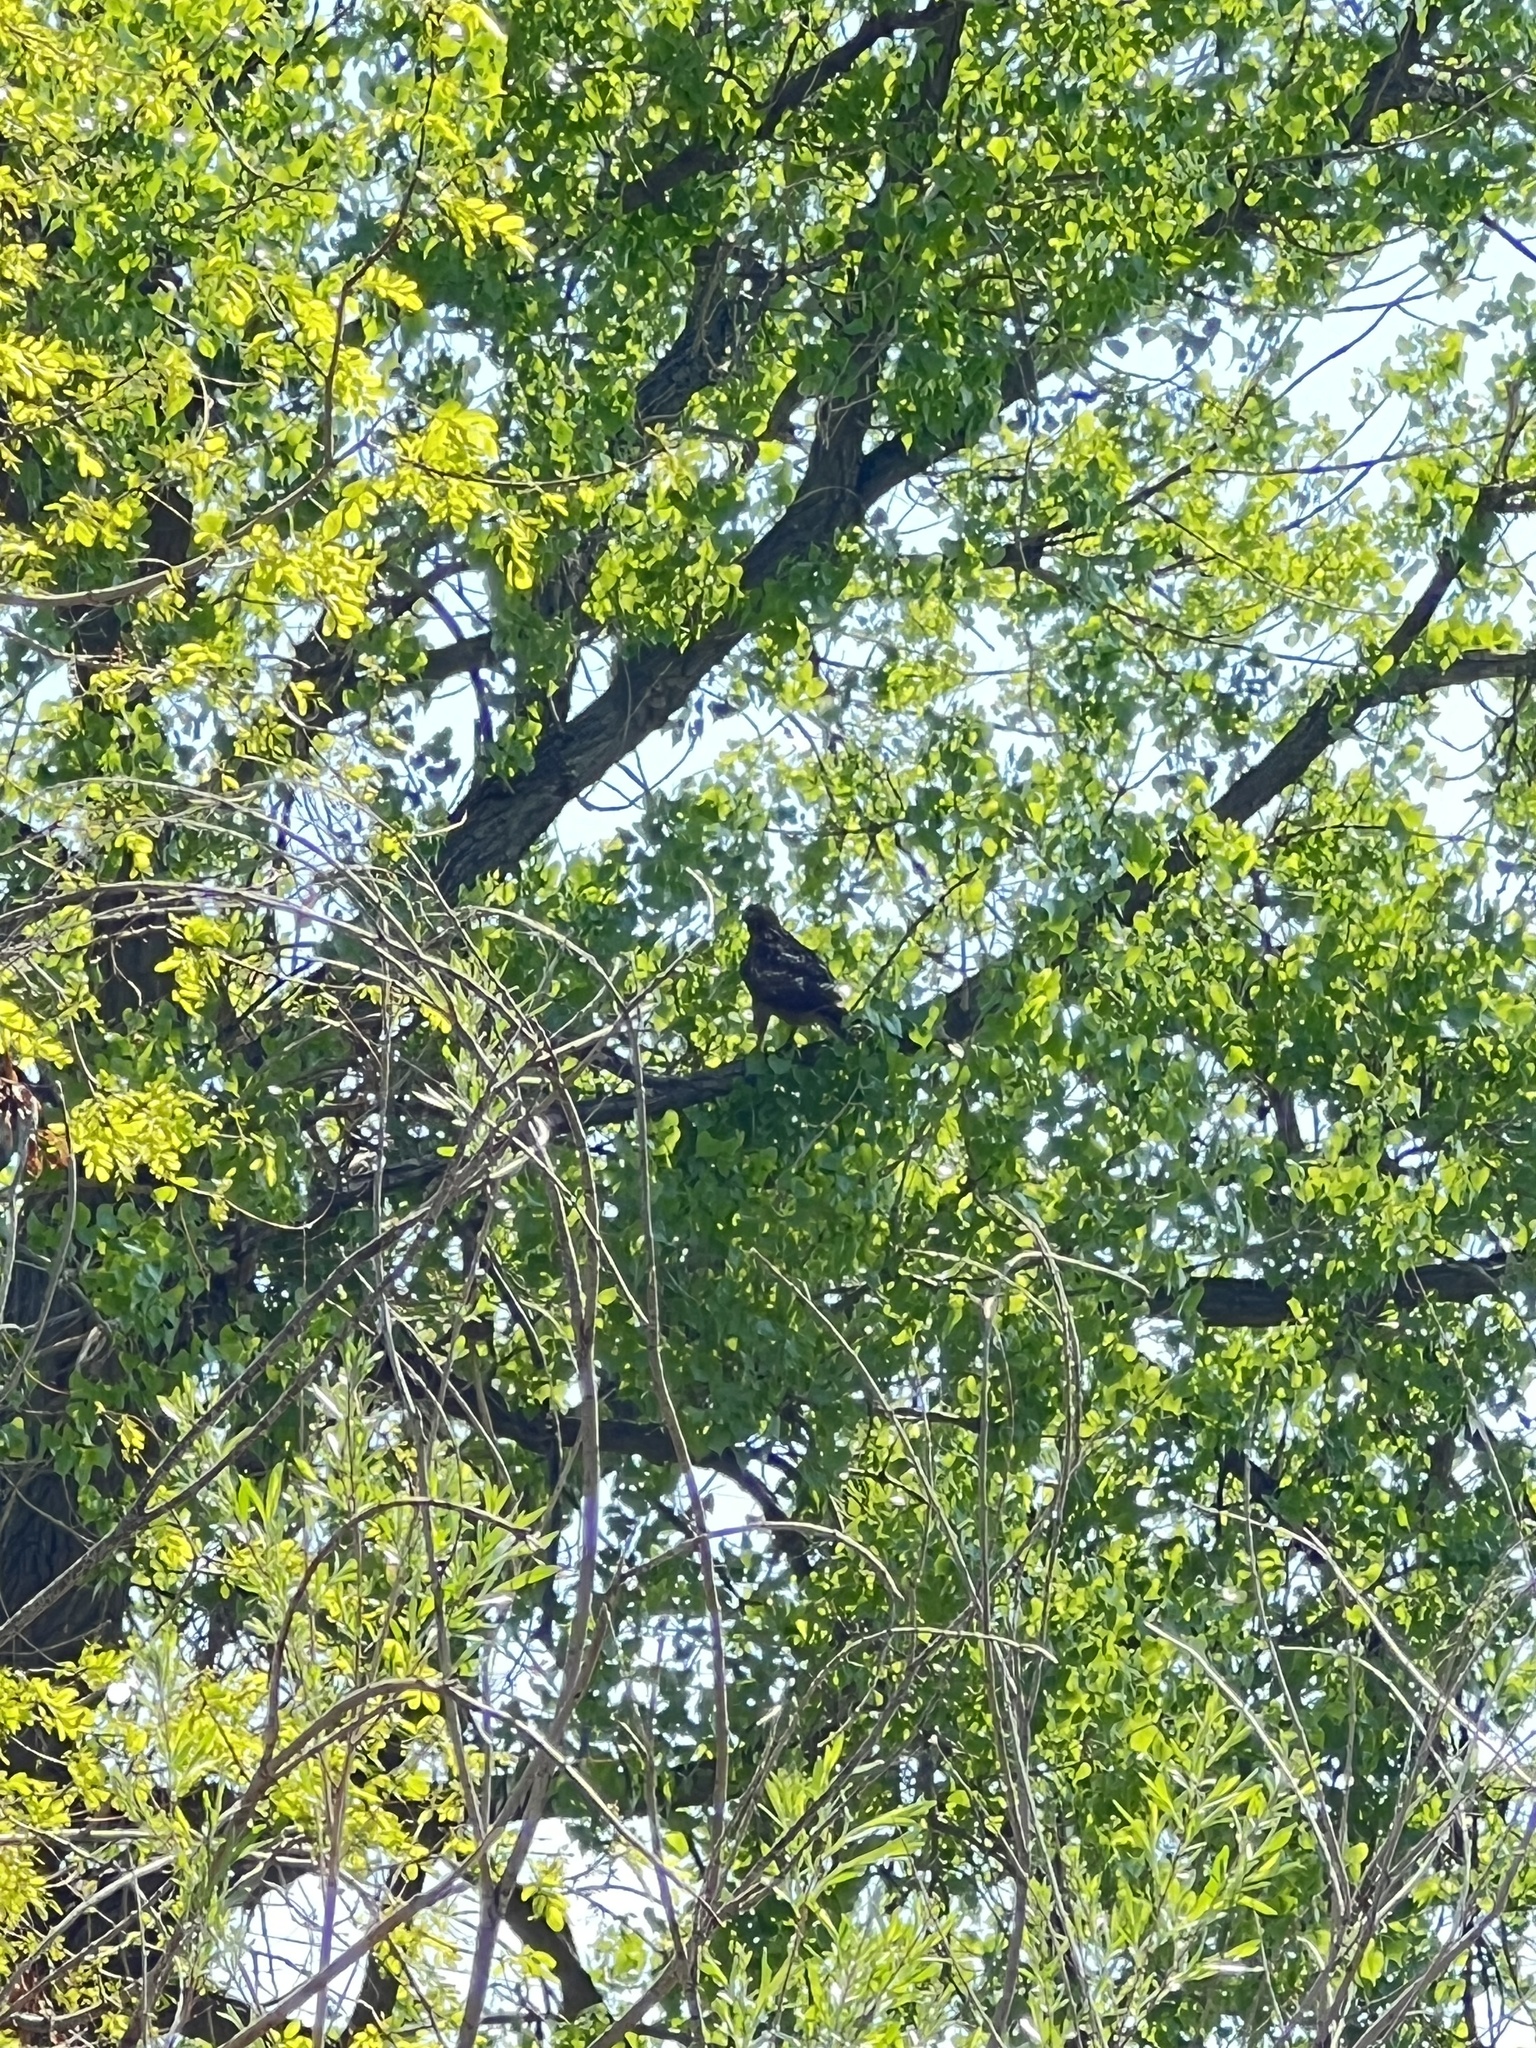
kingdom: Animalia
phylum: Chordata
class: Aves
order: Accipitriformes
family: Accipitridae
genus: Buteo
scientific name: Buteo jamaicensis
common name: Red-tailed hawk
